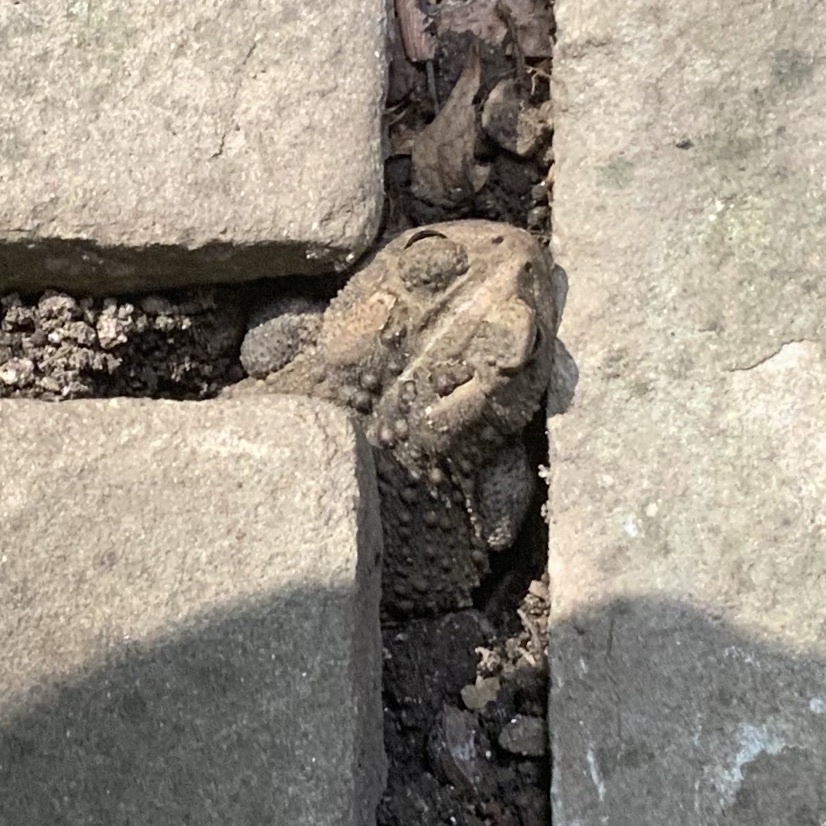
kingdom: Animalia
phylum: Chordata
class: Amphibia
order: Anura
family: Bufonidae
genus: Anaxyrus
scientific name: Anaxyrus americanus
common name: American toad
